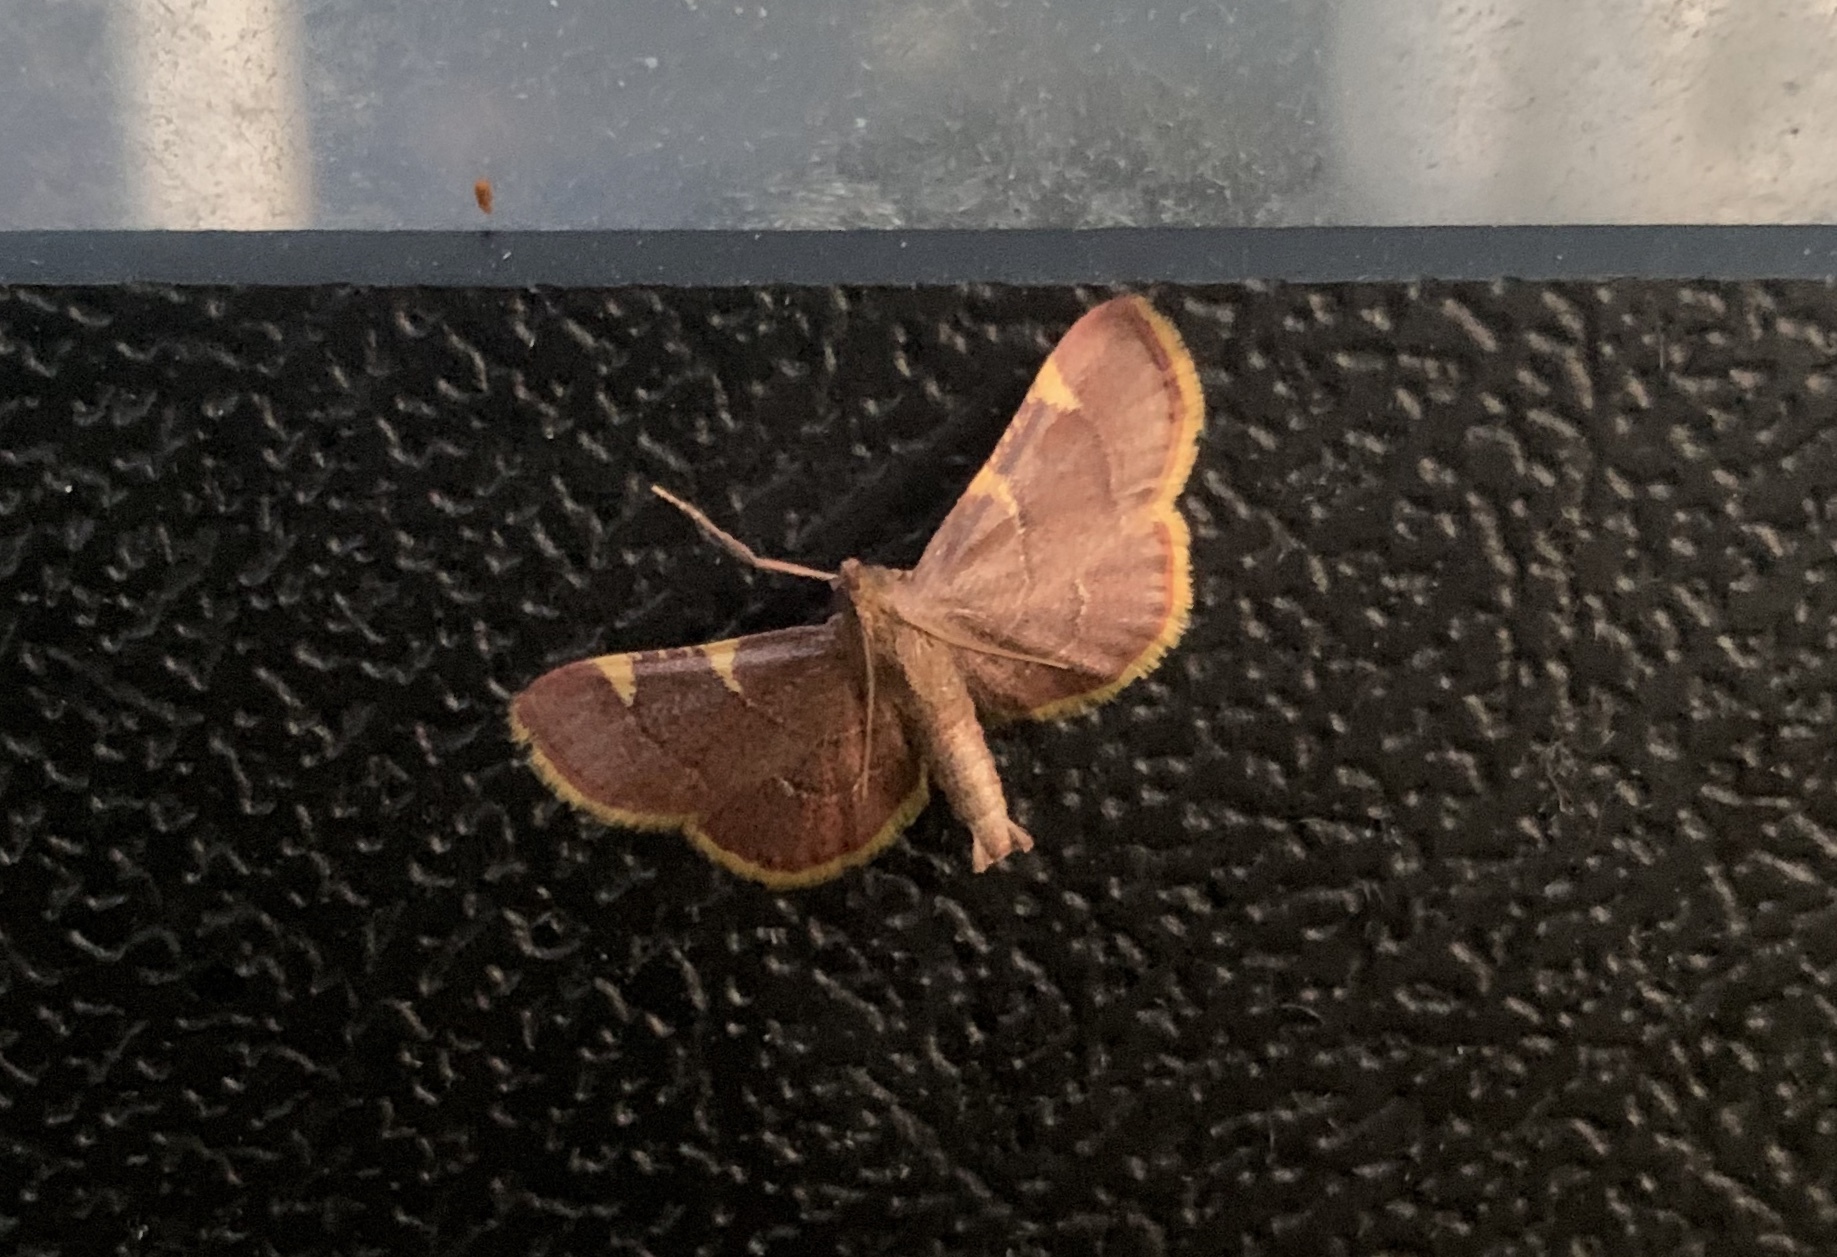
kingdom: Animalia
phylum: Arthropoda
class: Insecta
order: Lepidoptera
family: Pyralidae
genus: Hypsopygia
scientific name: Hypsopygia olinalis
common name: Yellow-fringed dolichomia moth
